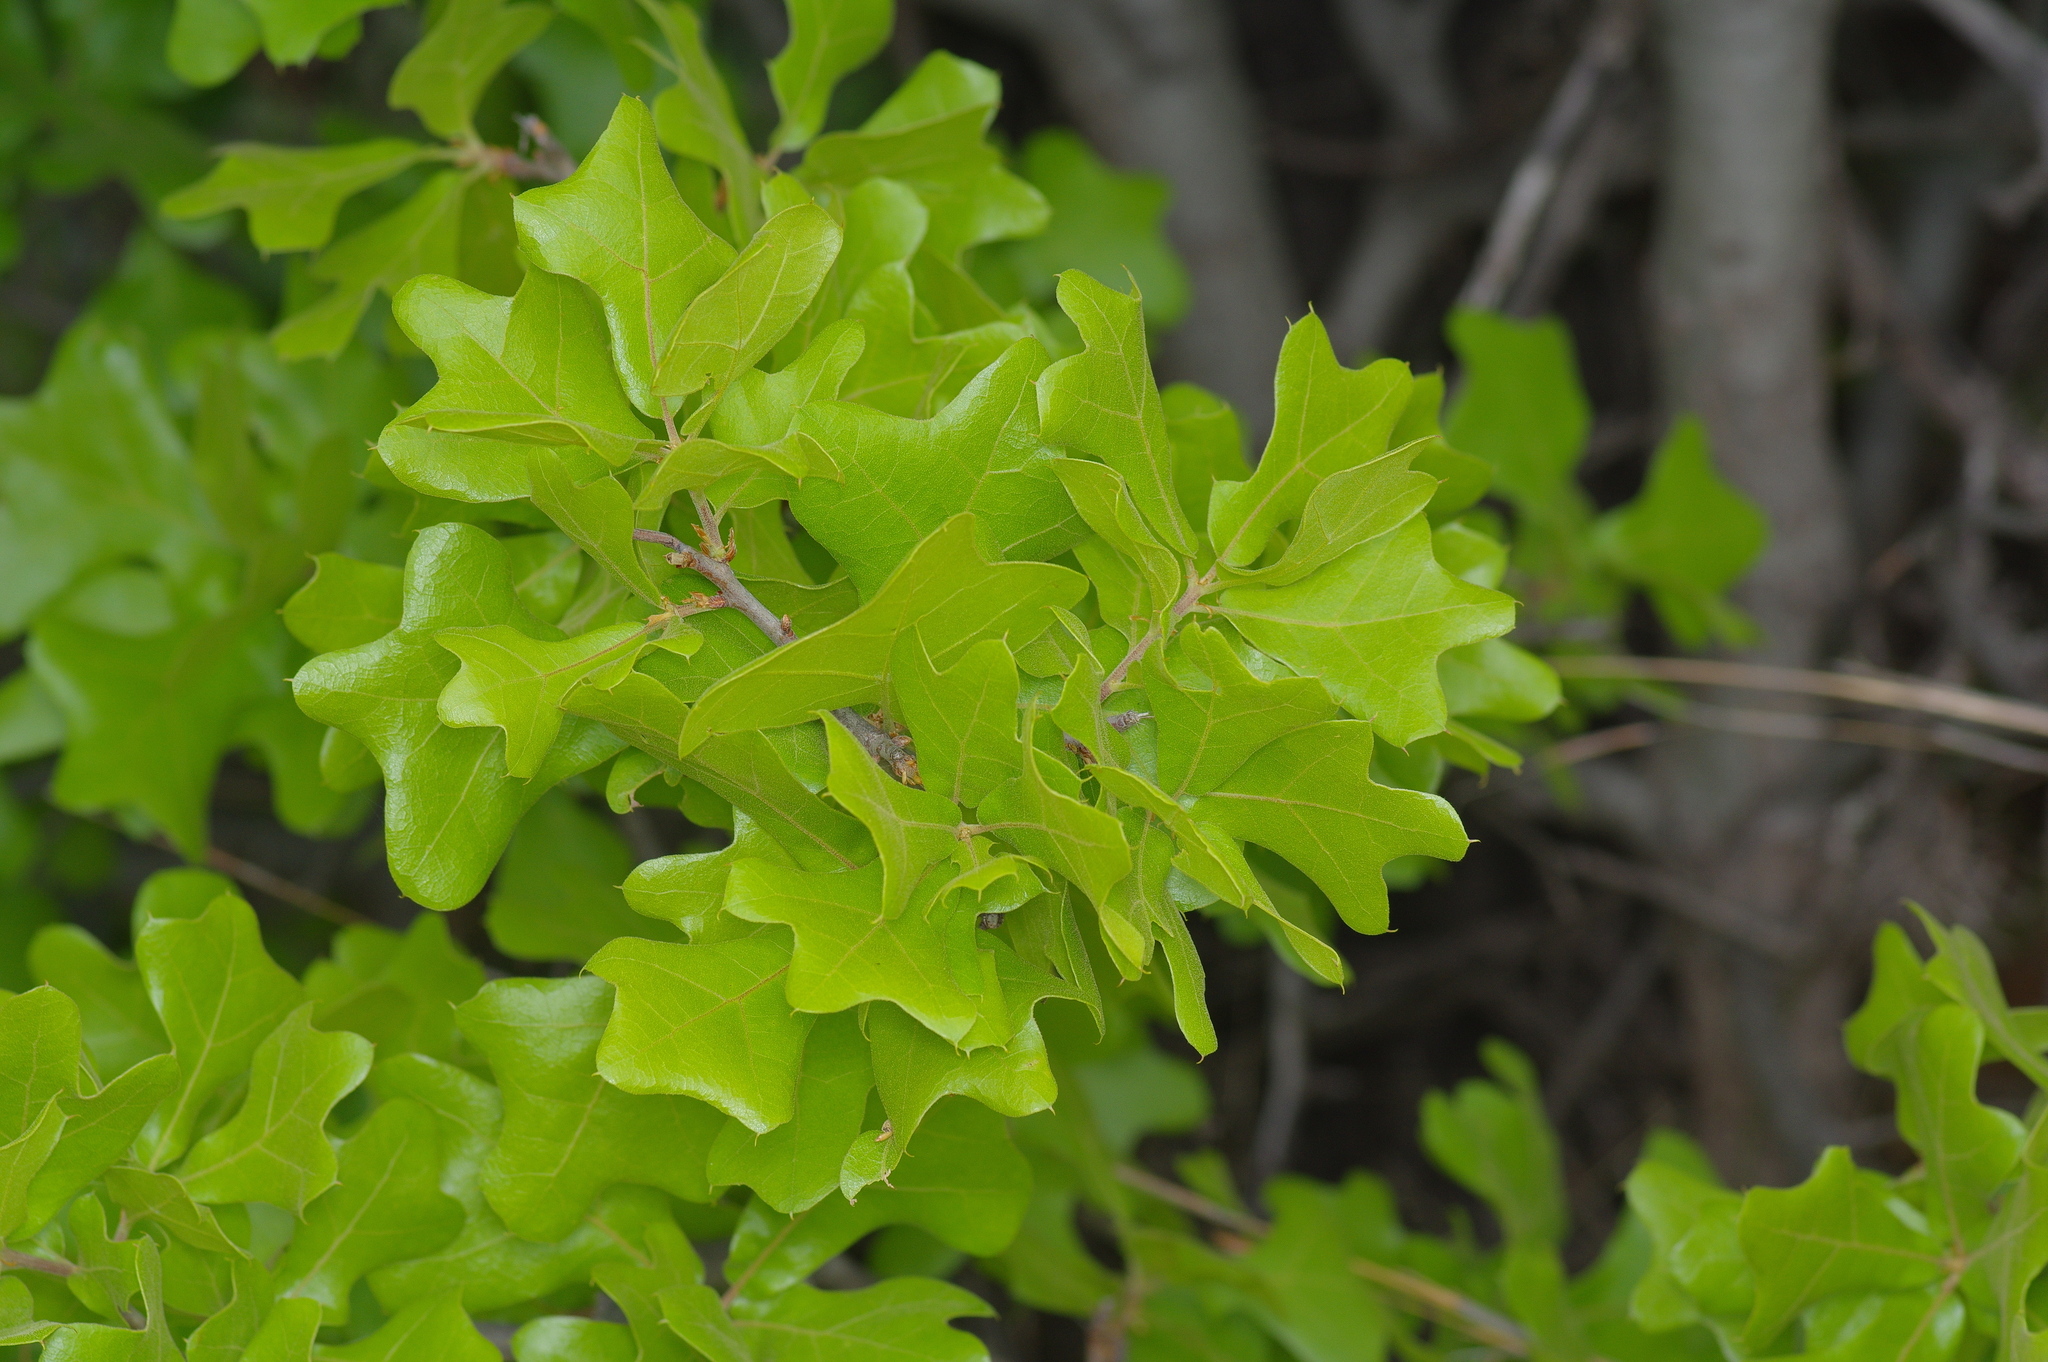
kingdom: Plantae
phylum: Tracheophyta
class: Magnoliopsida
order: Fagales
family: Fagaceae
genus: Quercus
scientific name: Quercus marilandica
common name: Blackjack oak
